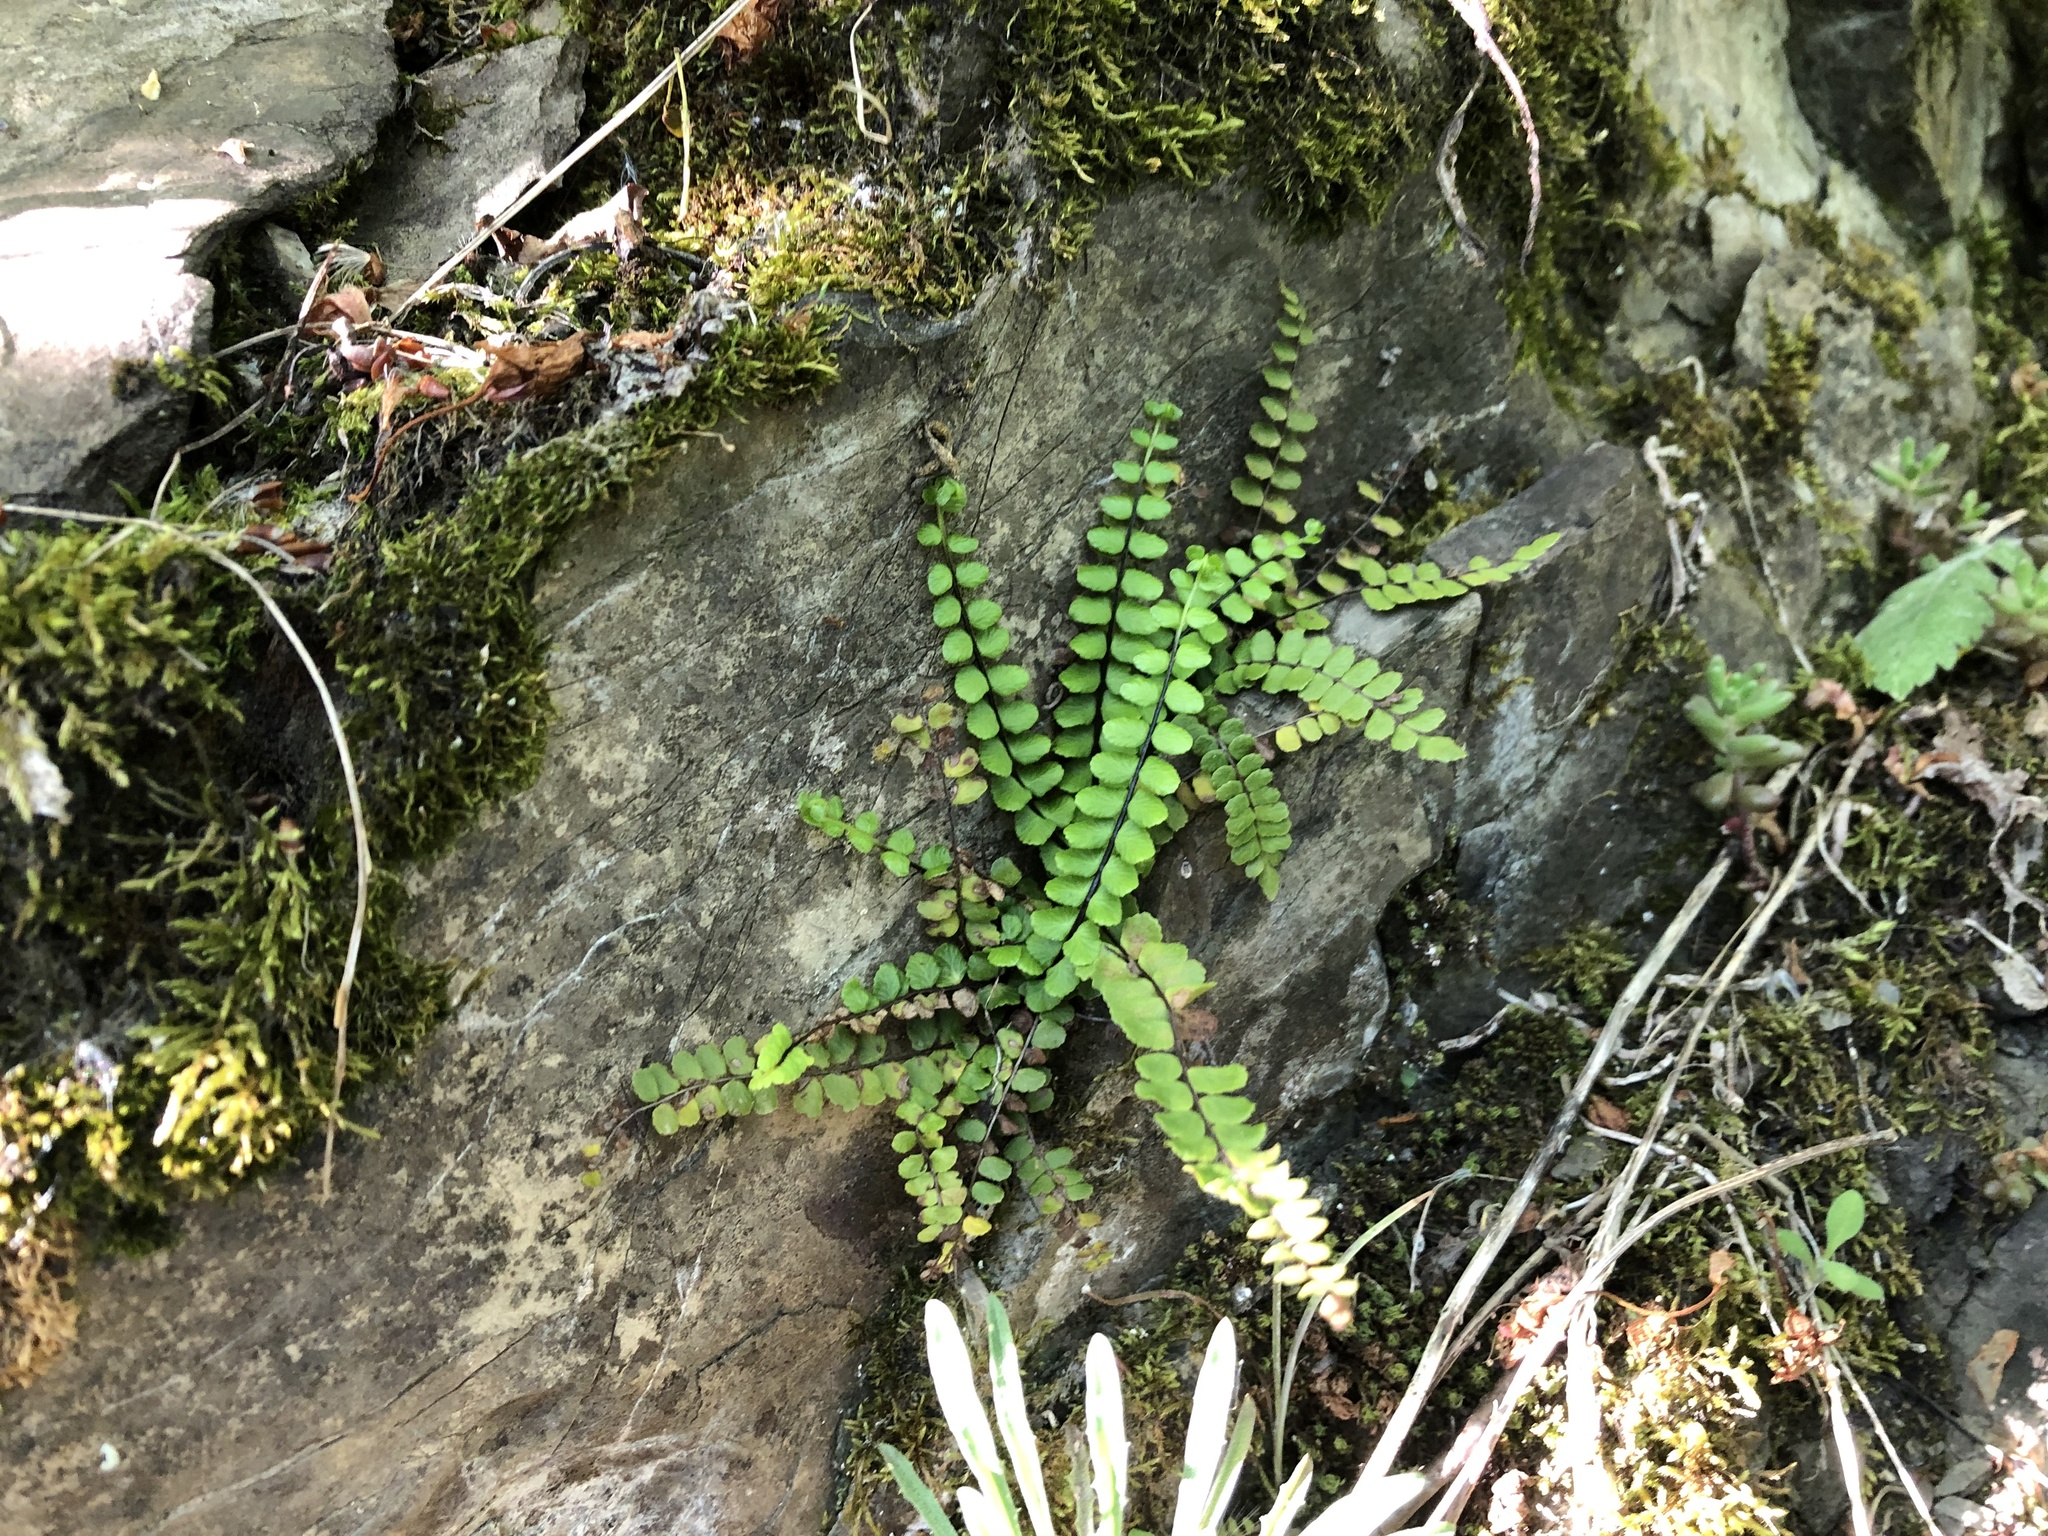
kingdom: Plantae
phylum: Tracheophyta
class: Polypodiopsida
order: Polypodiales
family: Aspleniaceae
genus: Asplenium
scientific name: Asplenium trichomanes
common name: Maidenhair spleenwort
